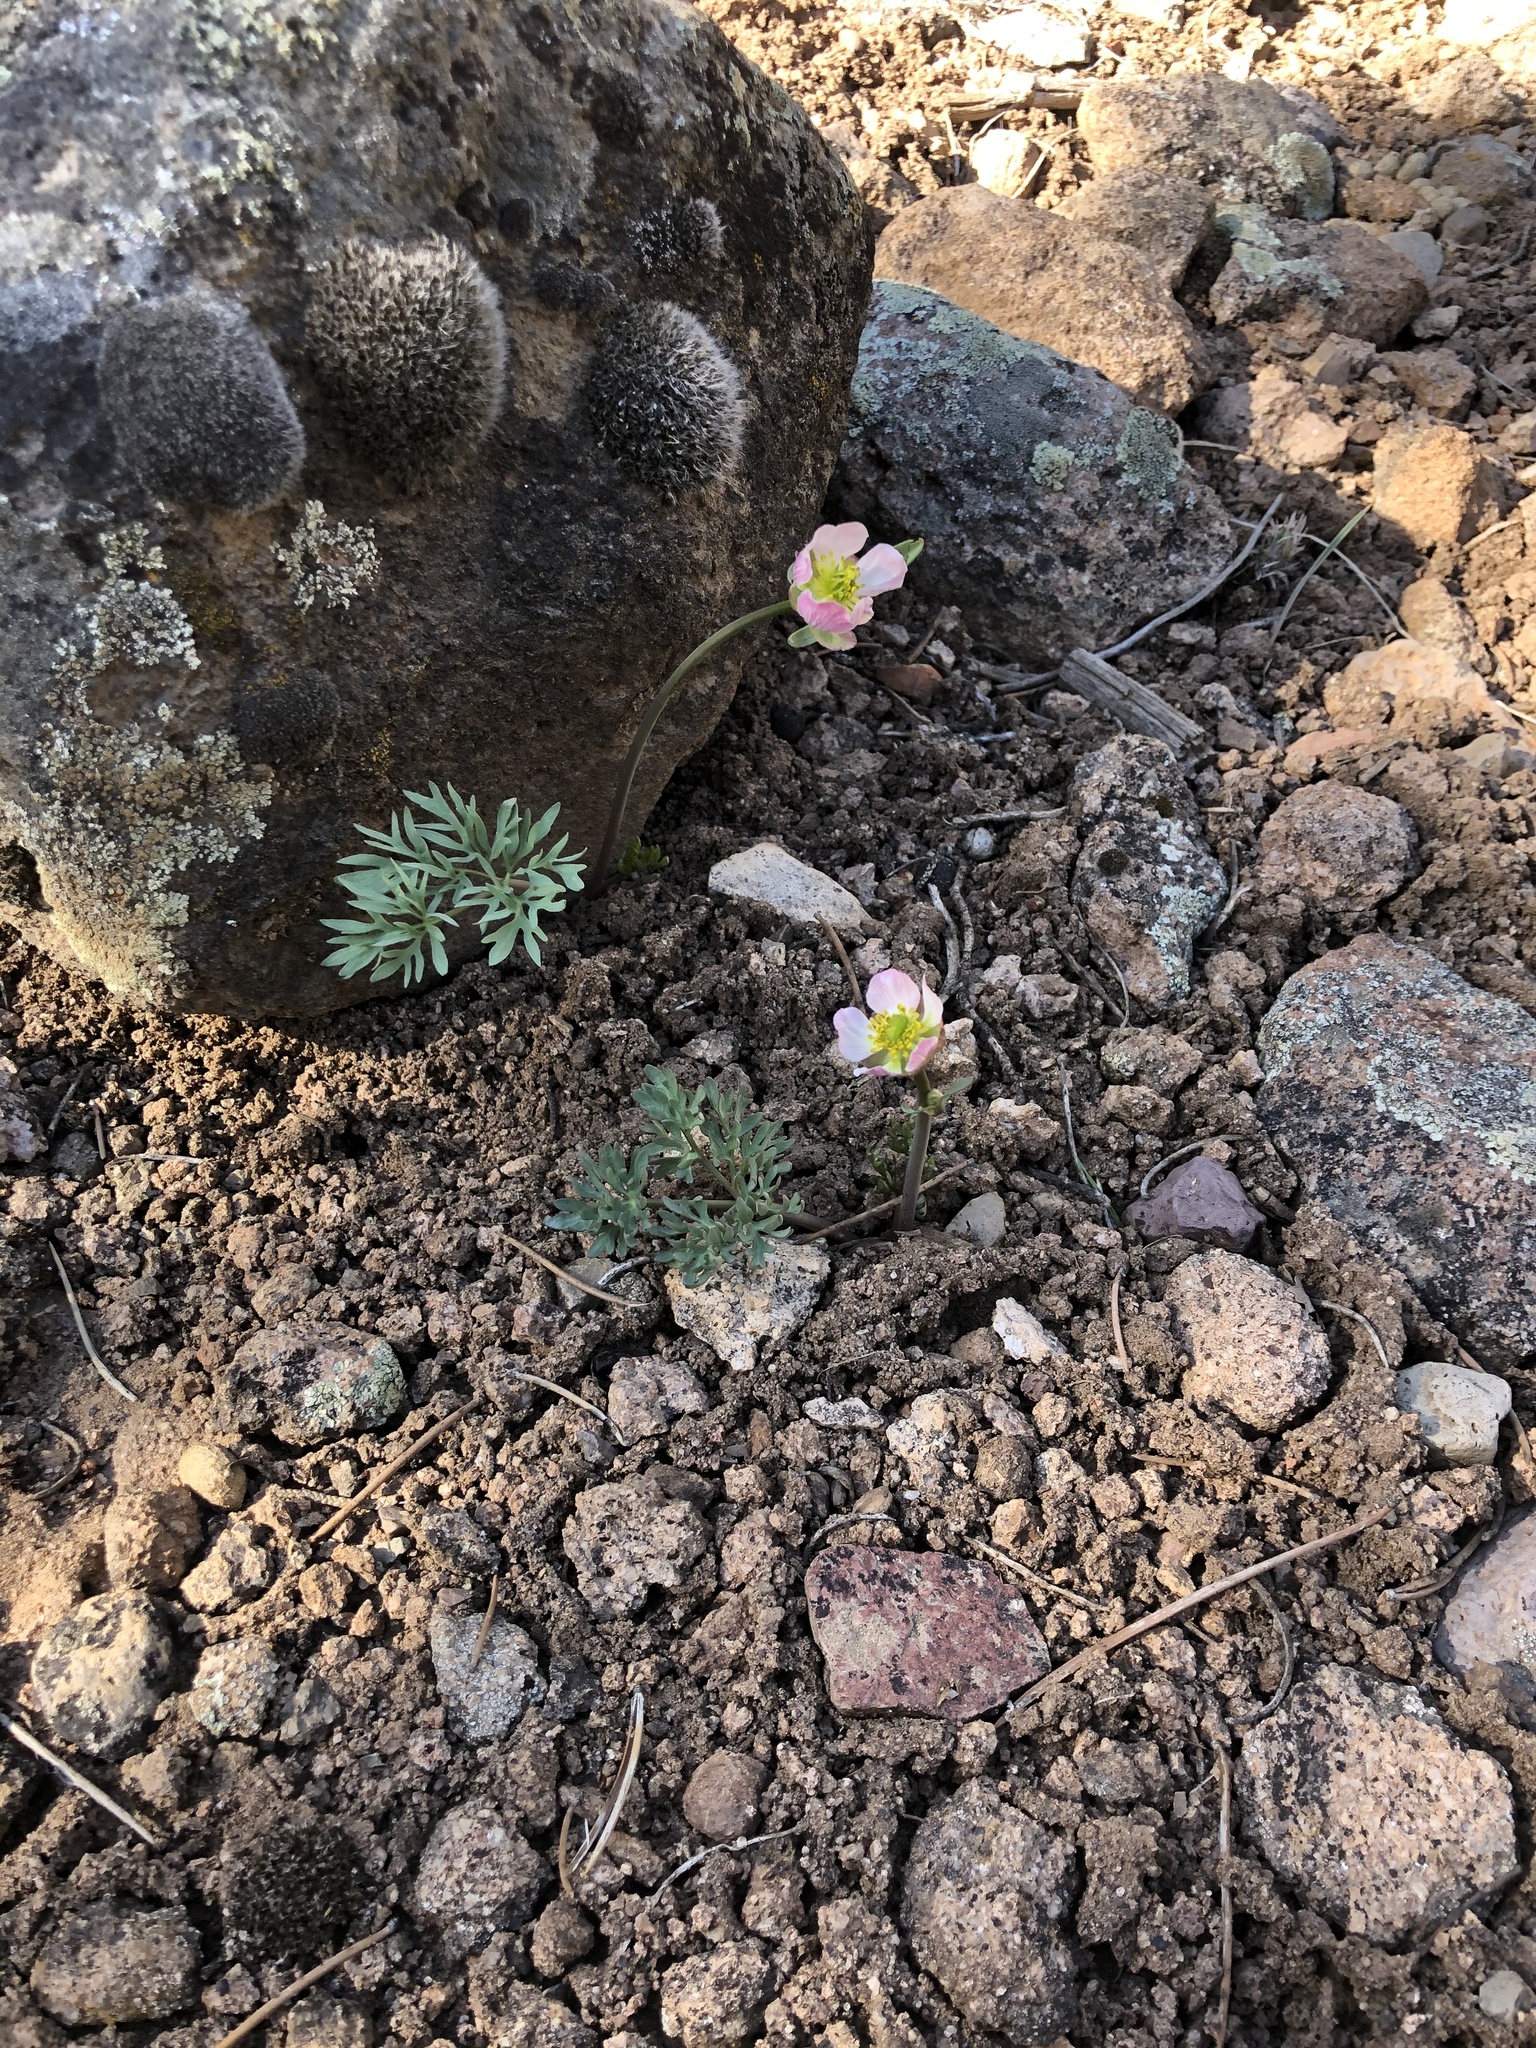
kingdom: Plantae
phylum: Tracheophyta
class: Magnoliopsida
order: Ranunculales
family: Ranunculaceae
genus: Beckwithia
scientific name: Beckwithia andersonii
